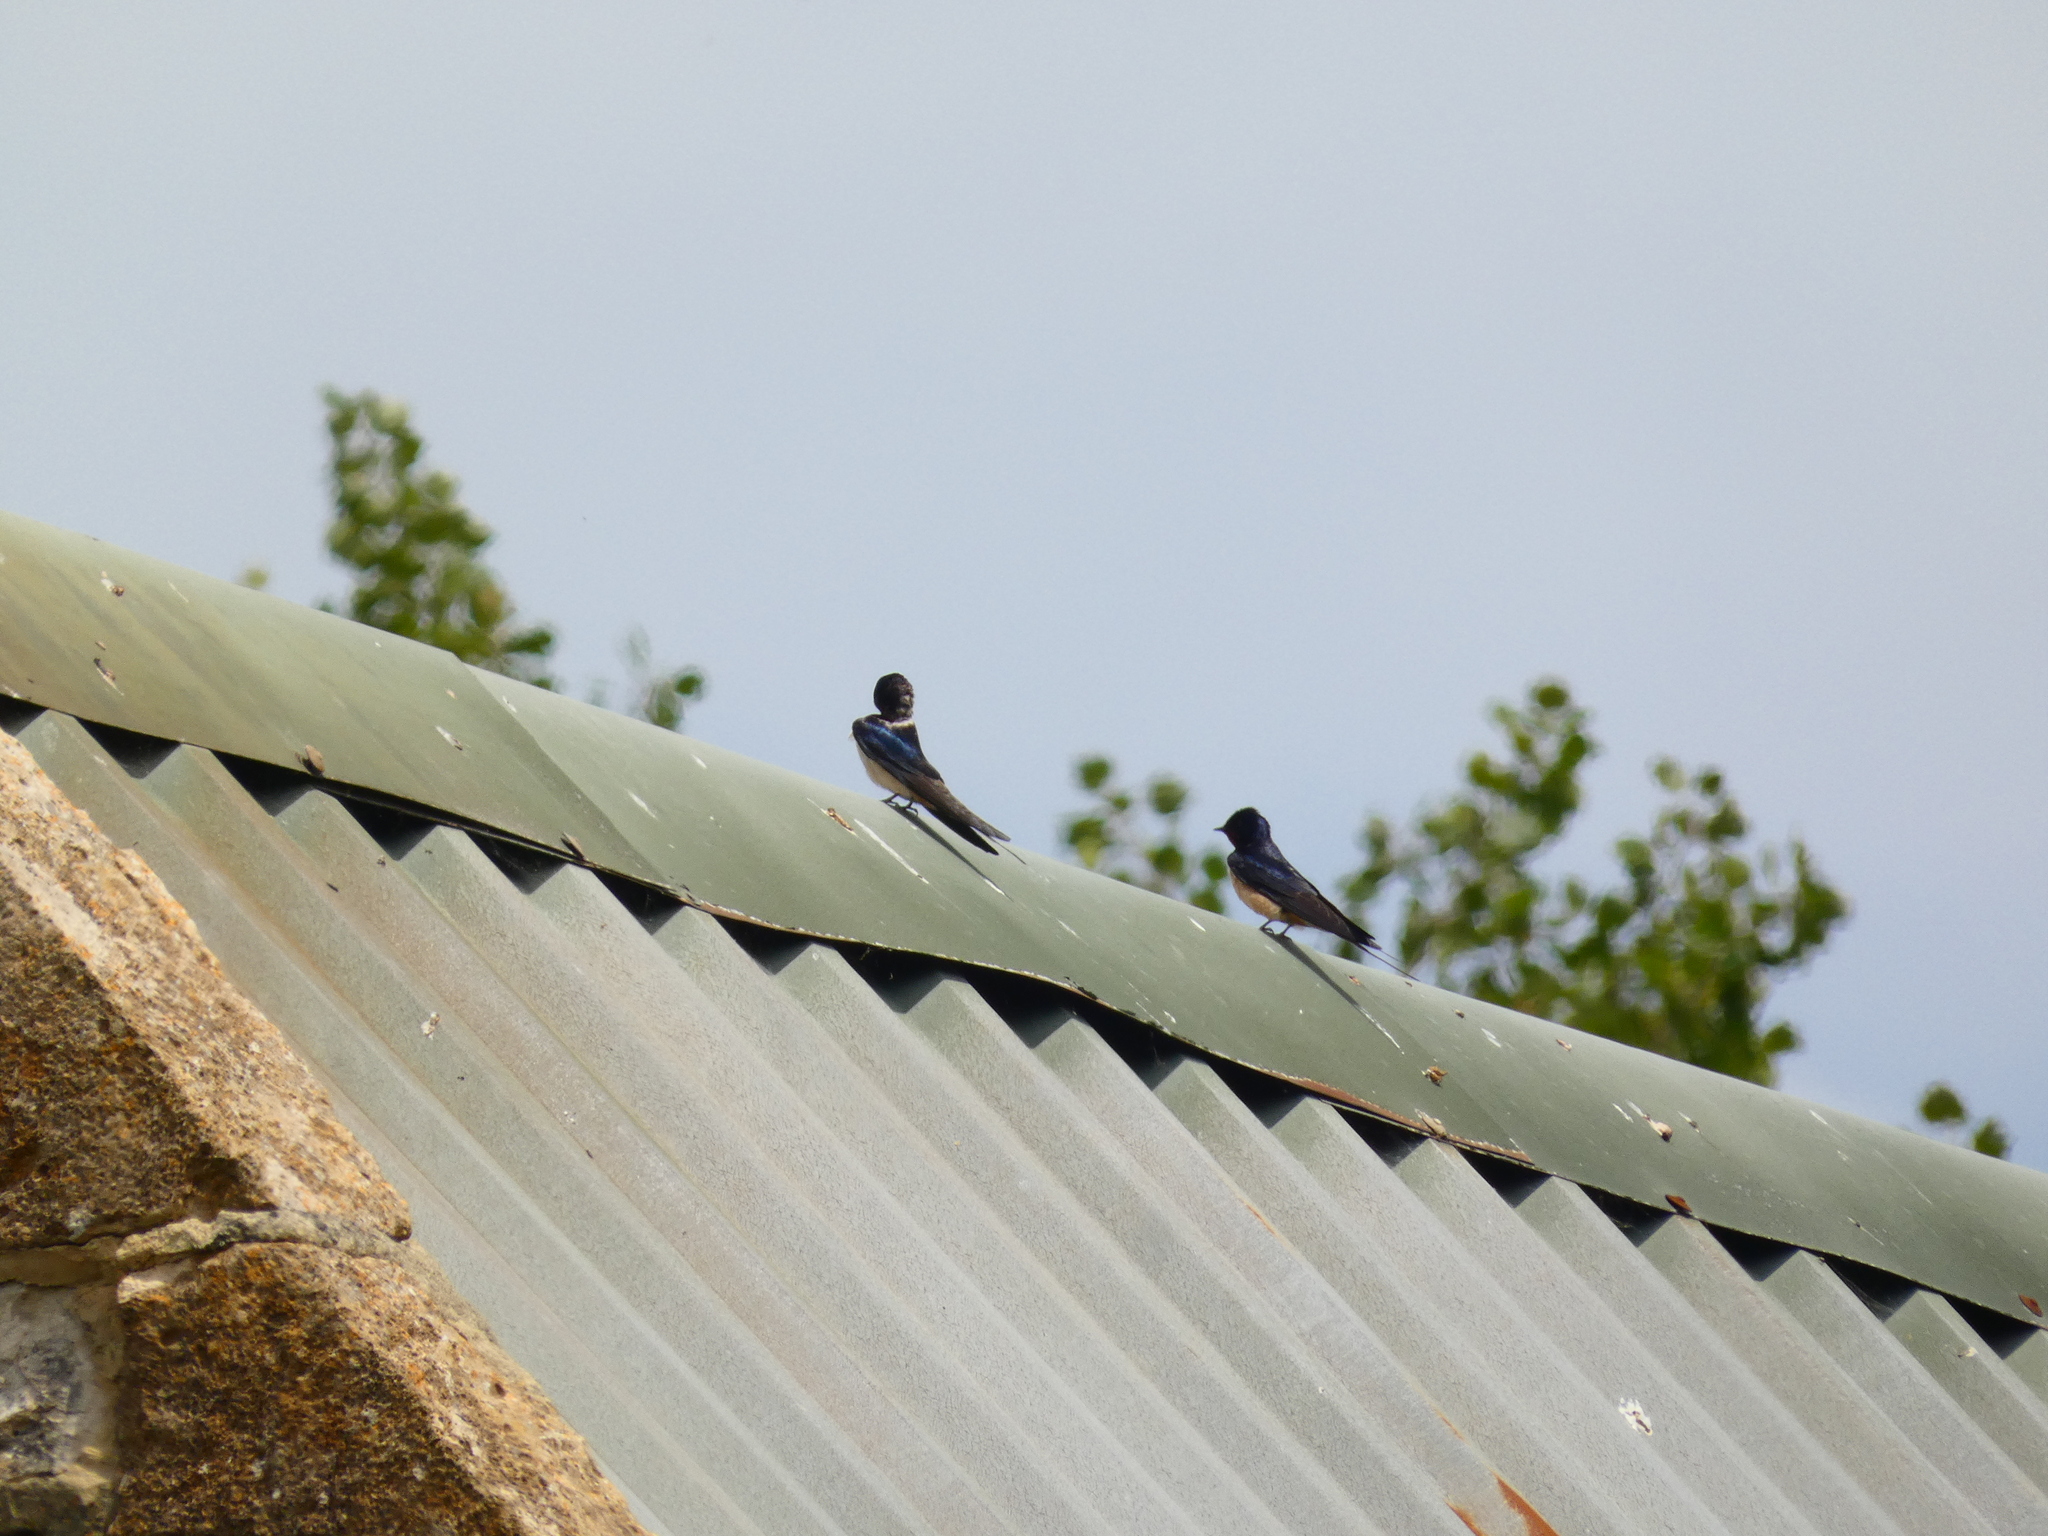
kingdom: Animalia
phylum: Chordata
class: Aves
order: Passeriformes
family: Hirundinidae
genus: Hirundo
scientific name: Hirundo rustica
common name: Barn swallow
